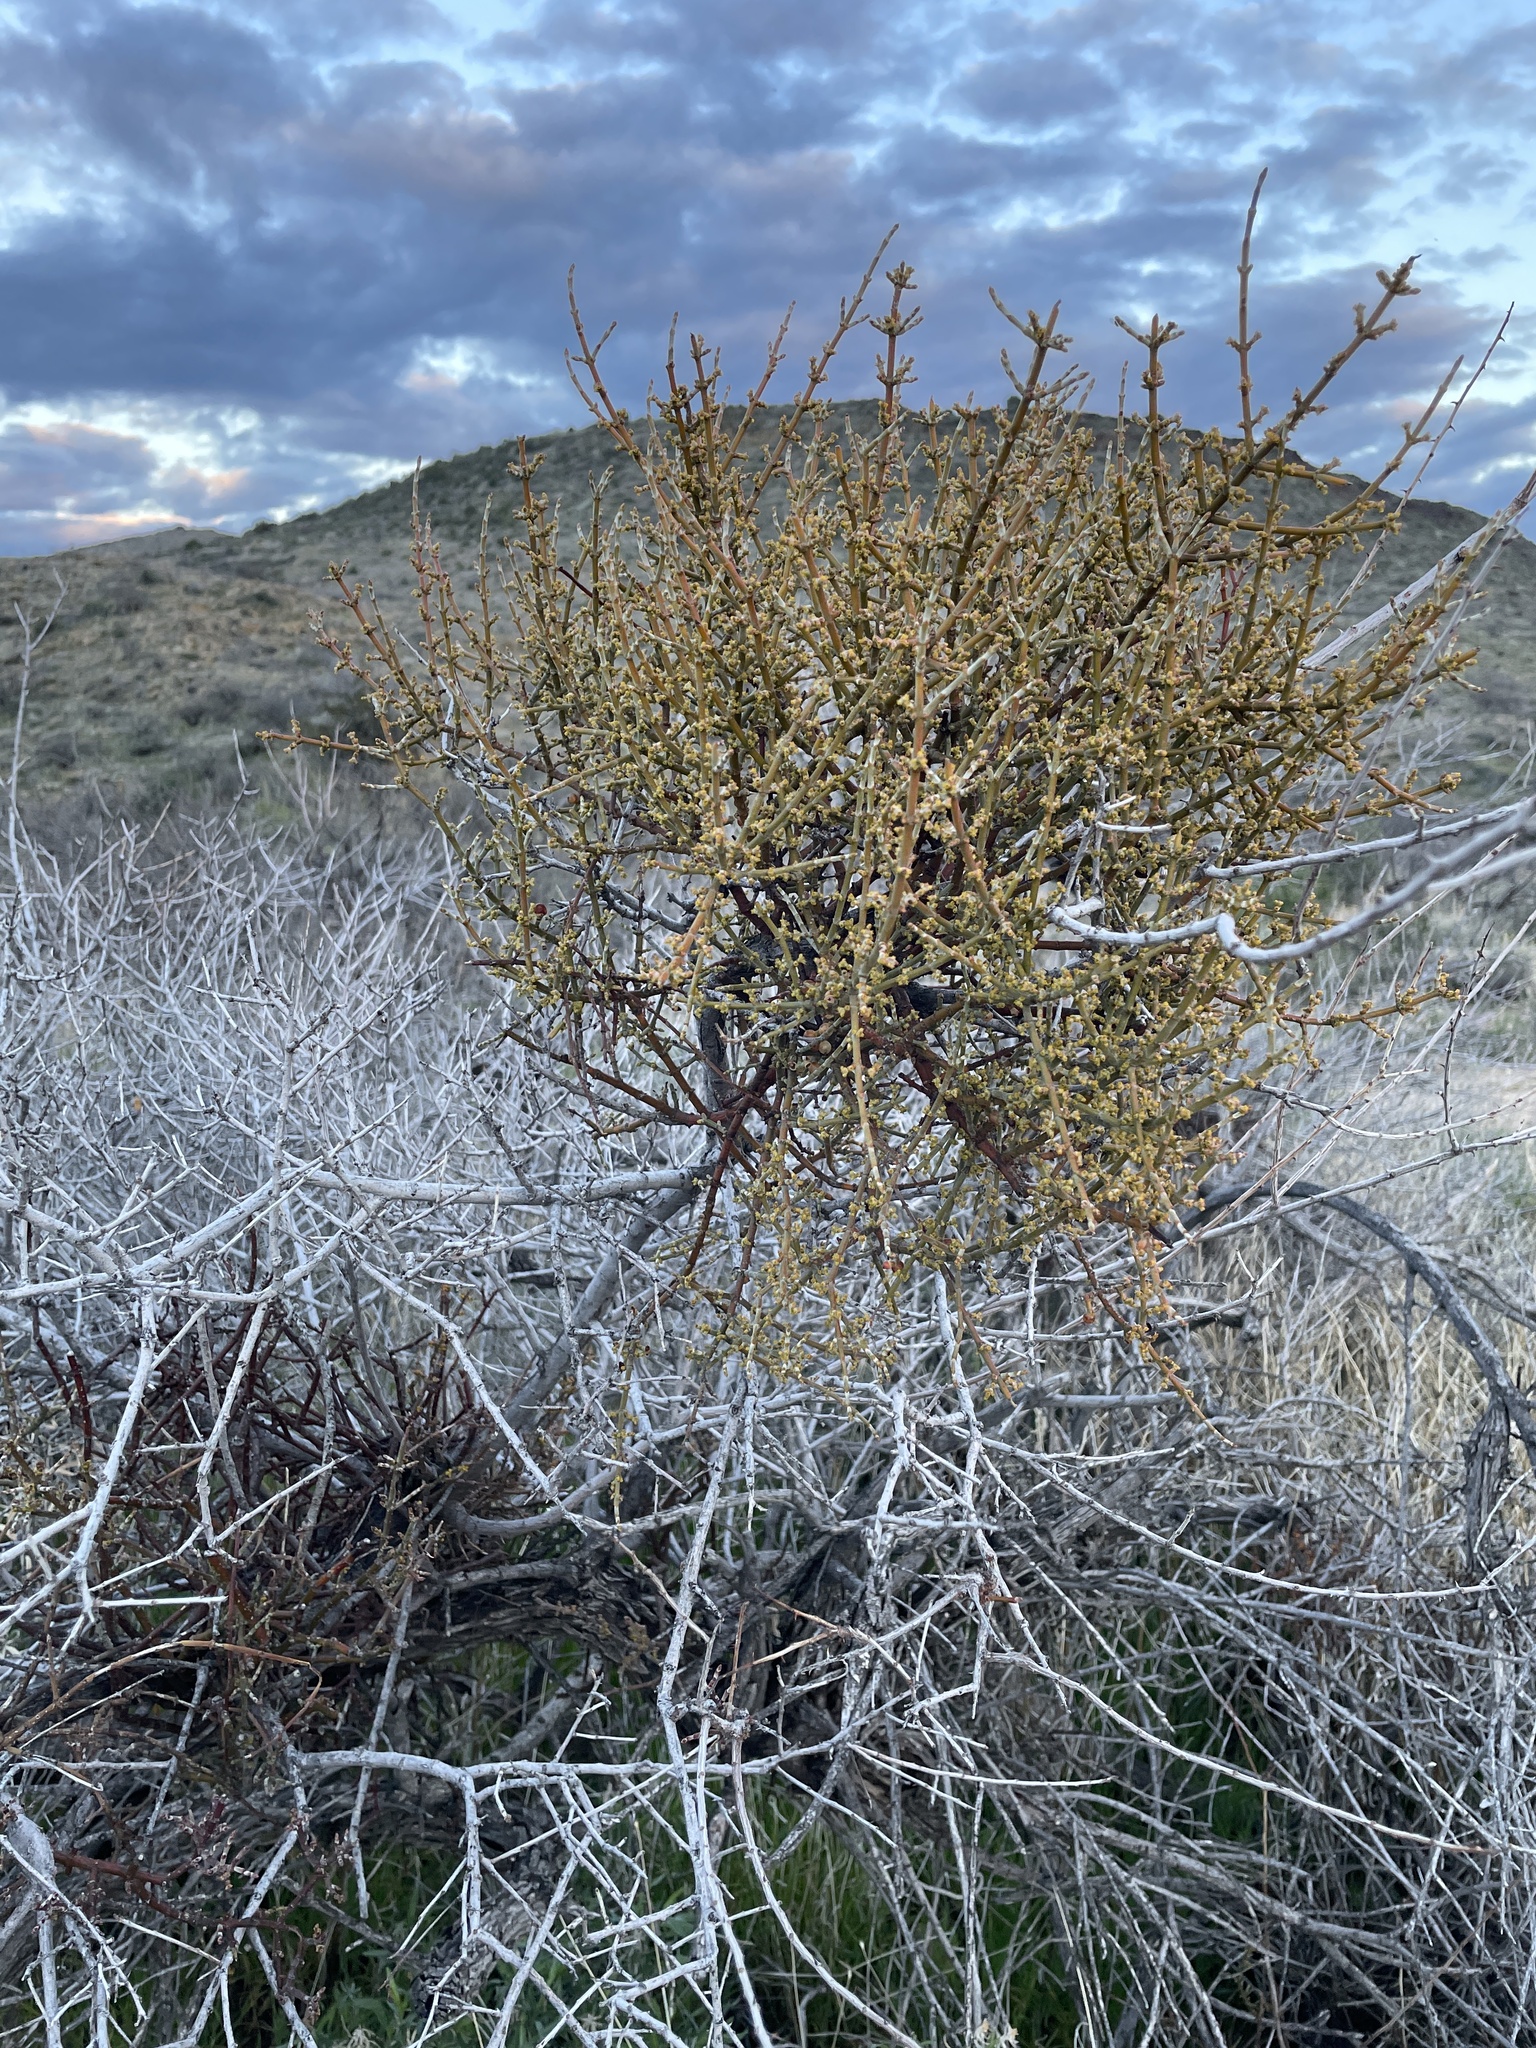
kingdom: Plantae
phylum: Tracheophyta
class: Magnoliopsida
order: Santalales
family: Viscaceae
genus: Phoradendron
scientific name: Phoradendron californicum
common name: Acacia mistletoe
